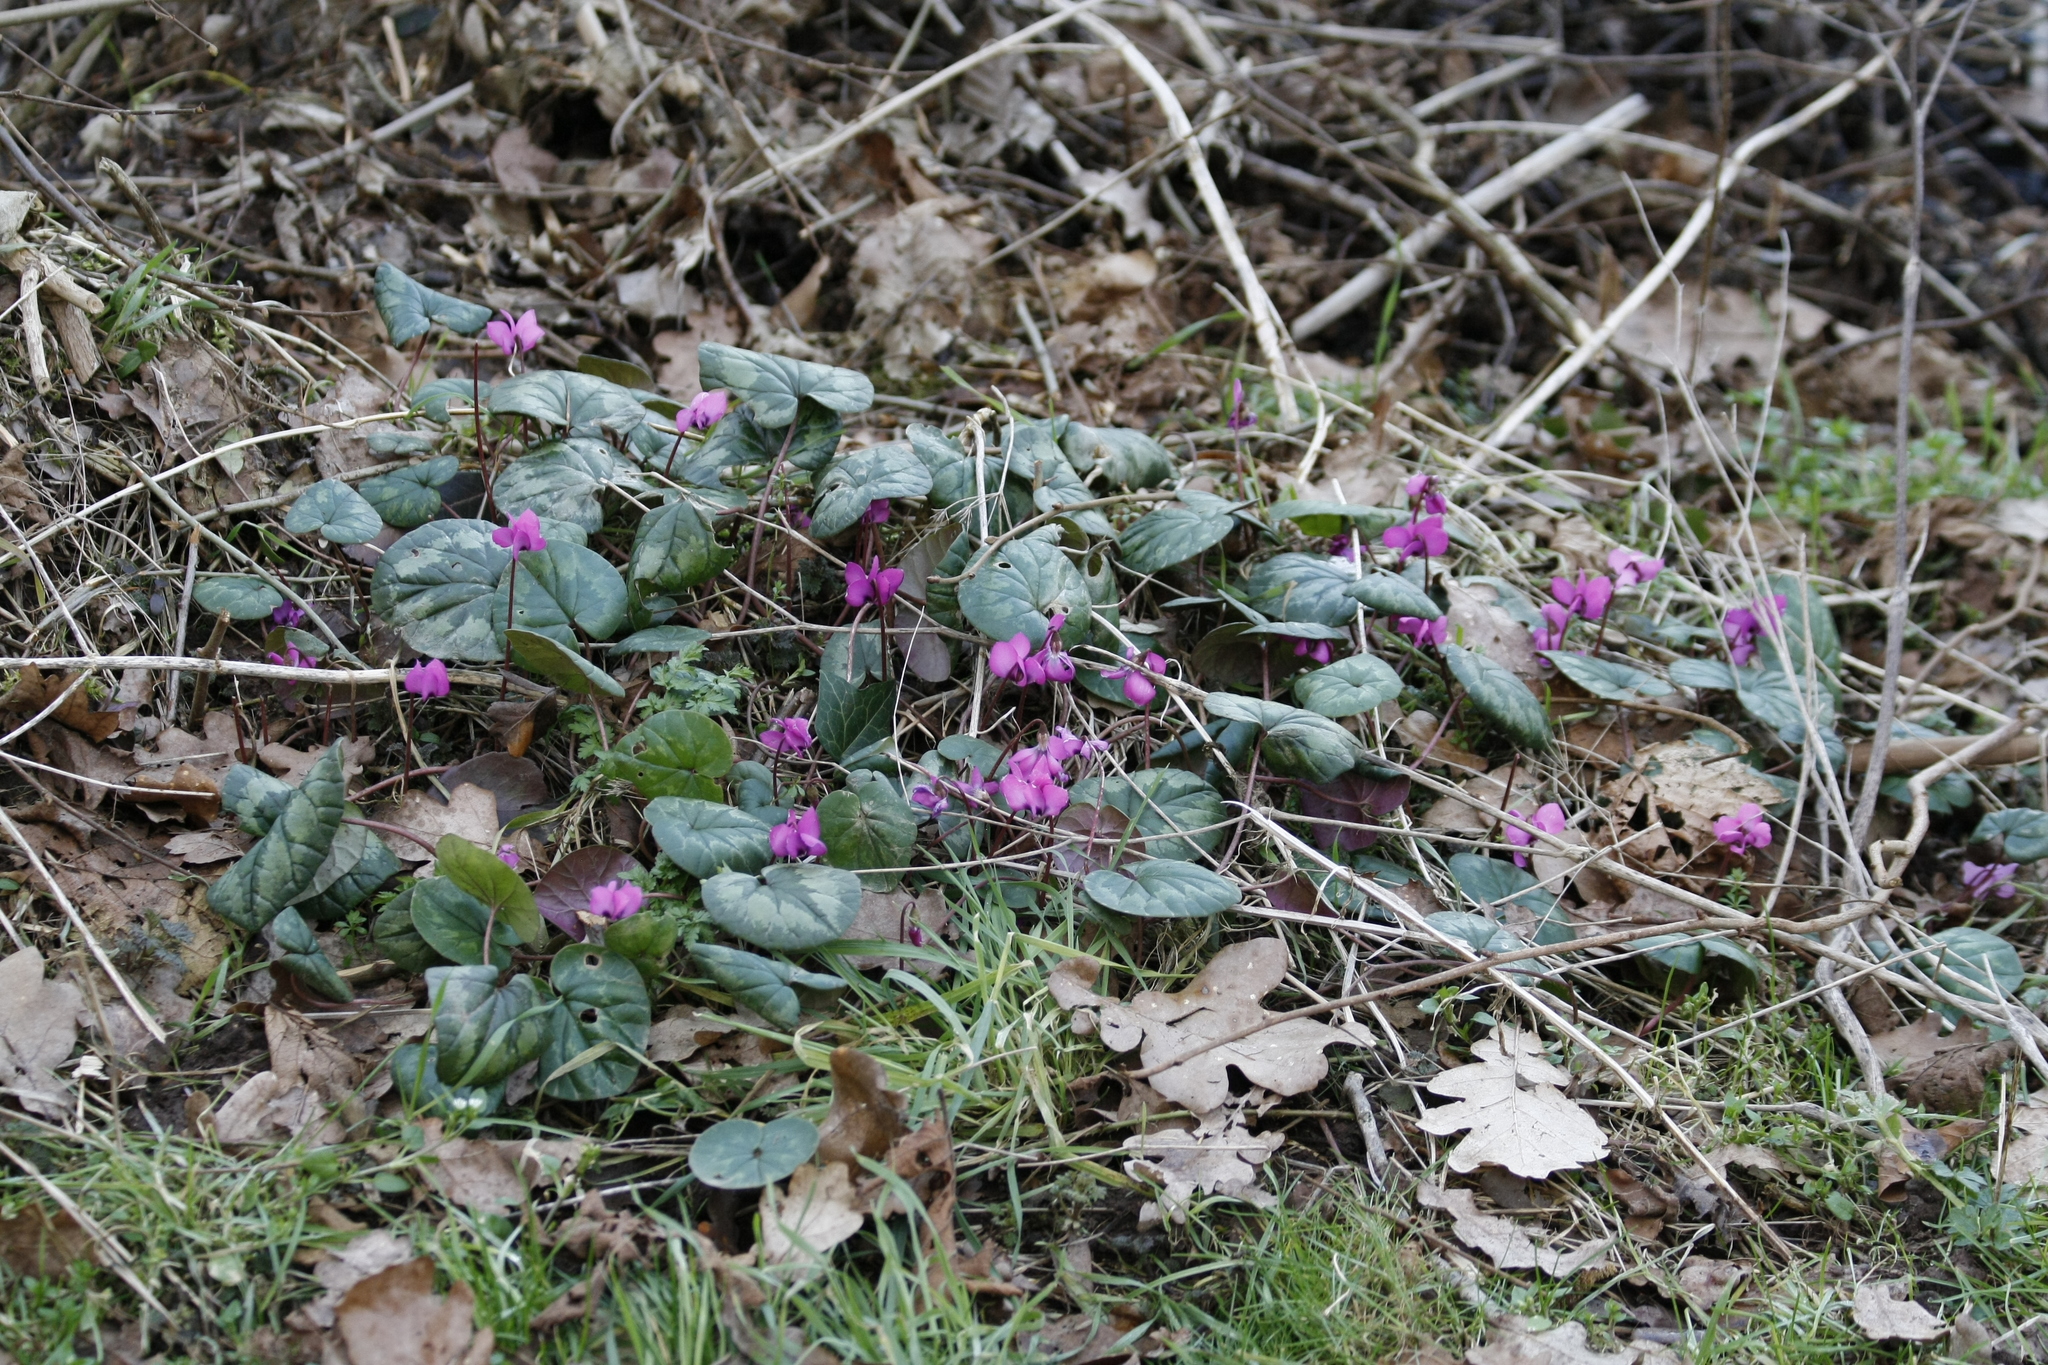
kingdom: Plantae
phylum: Tracheophyta
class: Magnoliopsida
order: Ericales
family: Primulaceae
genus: Cyclamen
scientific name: Cyclamen coum
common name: Eastern sowbread
